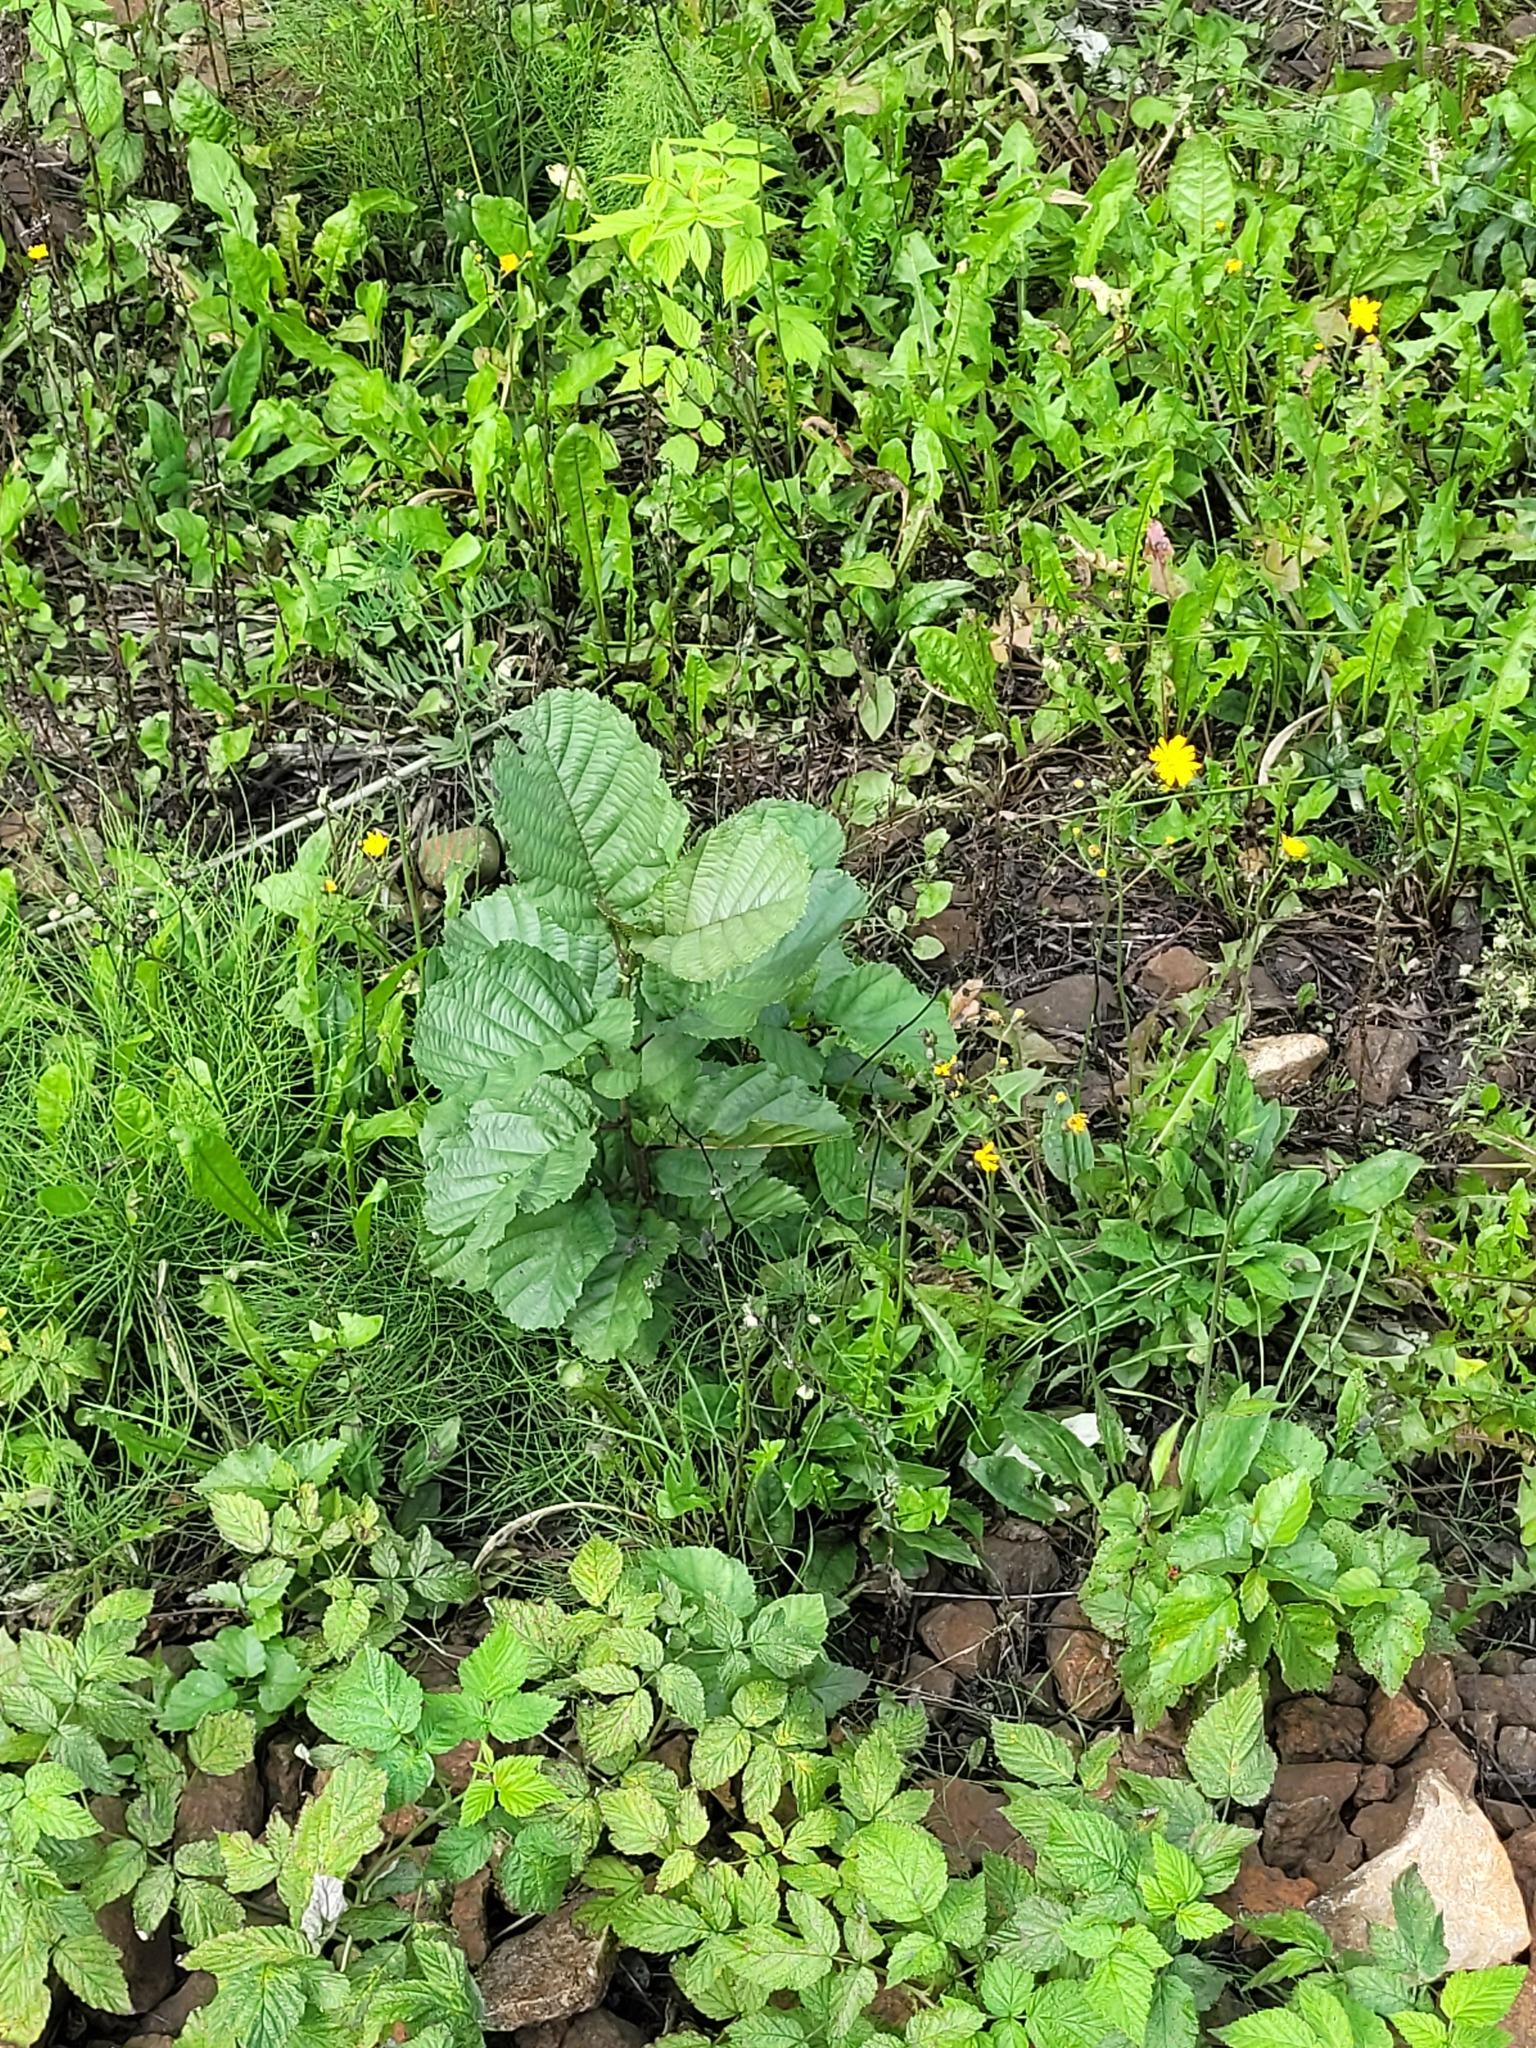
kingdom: Plantae
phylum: Tracheophyta
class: Magnoliopsida
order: Fagales
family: Betulaceae
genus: Alnus
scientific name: Alnus glutinosa
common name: Black alder
